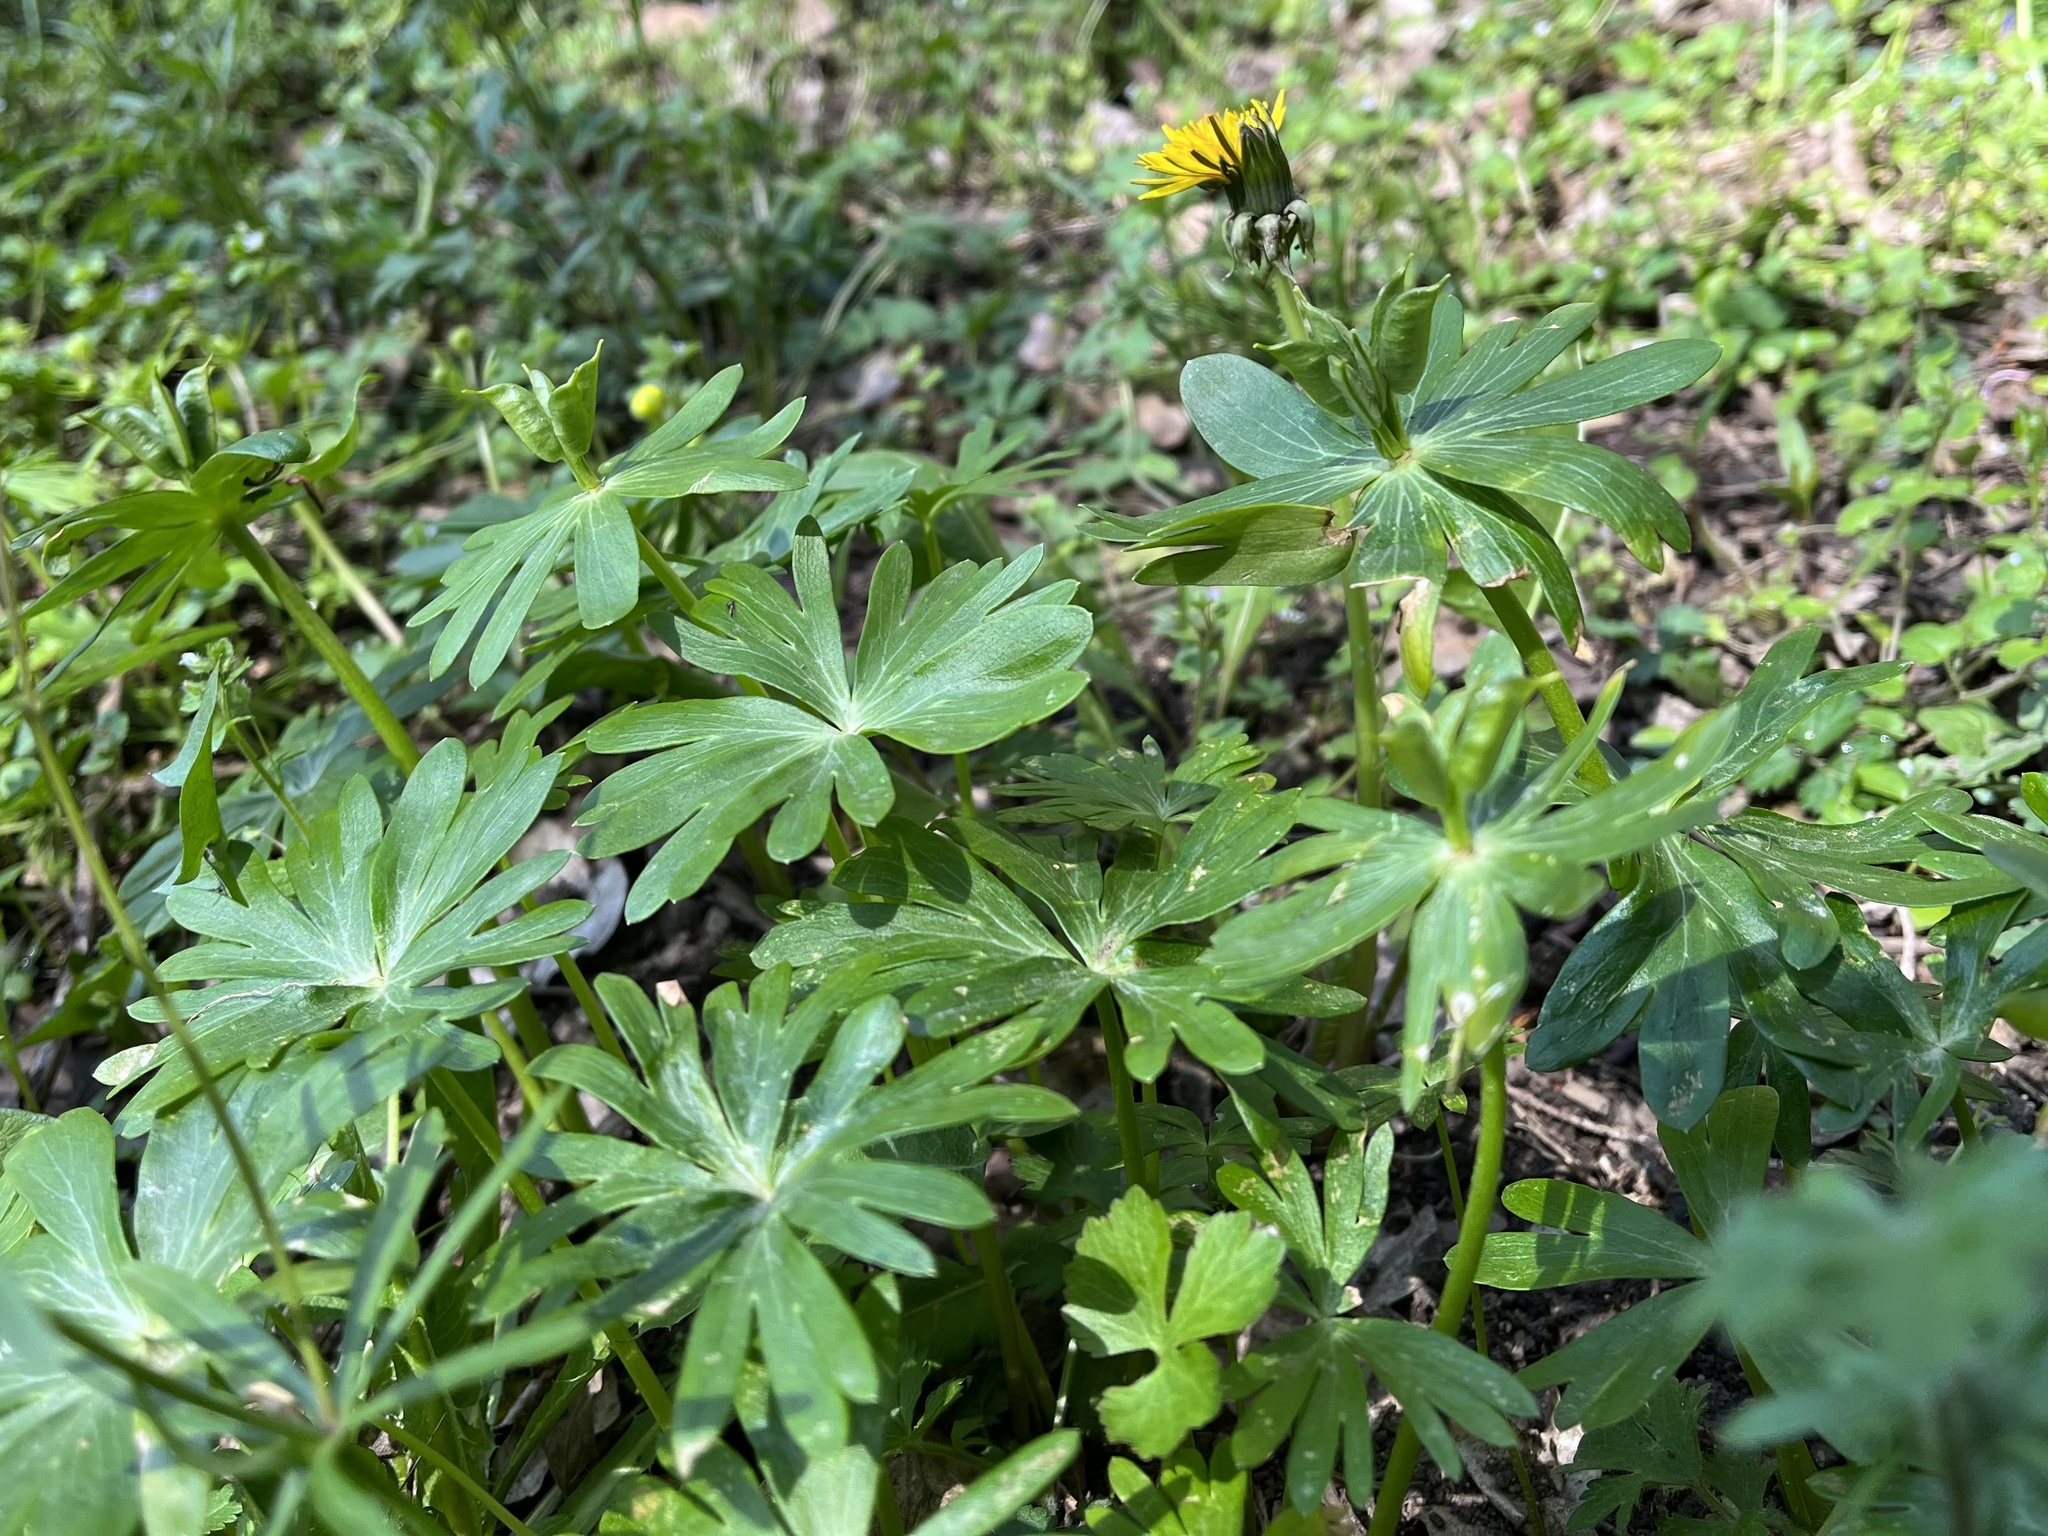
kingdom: Plantae
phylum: Tracheophyta
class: Magnoliopsida
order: Ranunculales
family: Ranunculaceae
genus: Eranthis
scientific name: Eranthis hyemalis
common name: Winter aconite
